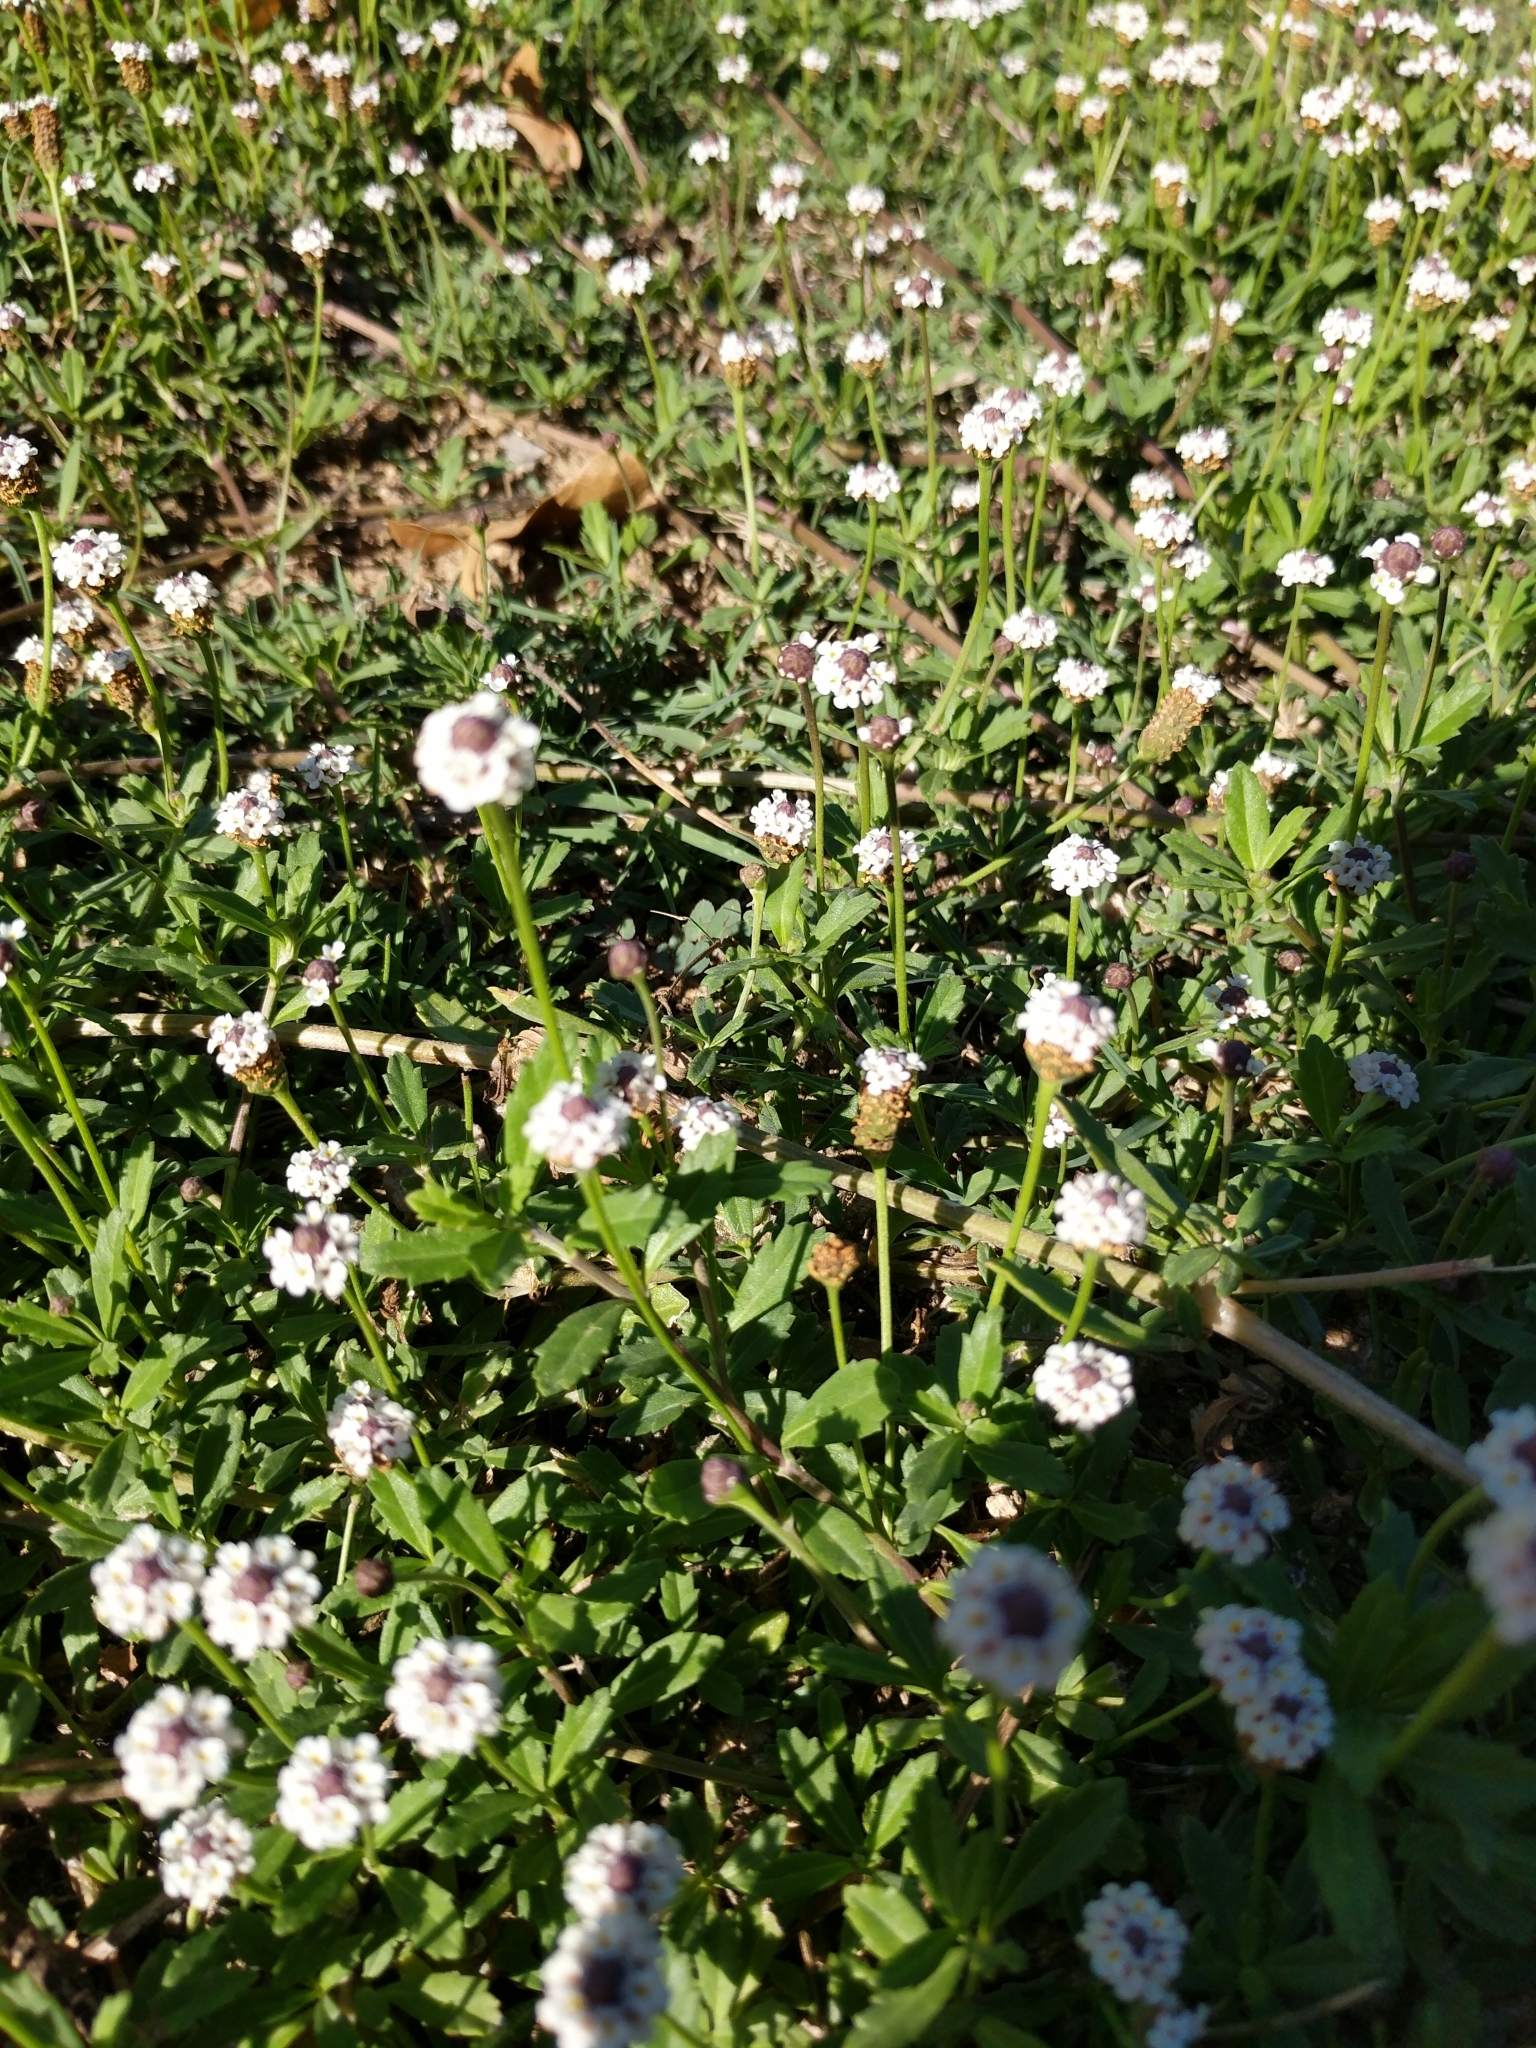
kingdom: Plantae
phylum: Tracheophyta
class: Magnoliopsida
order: Lamiales
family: Verbenaceae
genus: Phyla
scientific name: Phyla nodiflora
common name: Frogfruit
